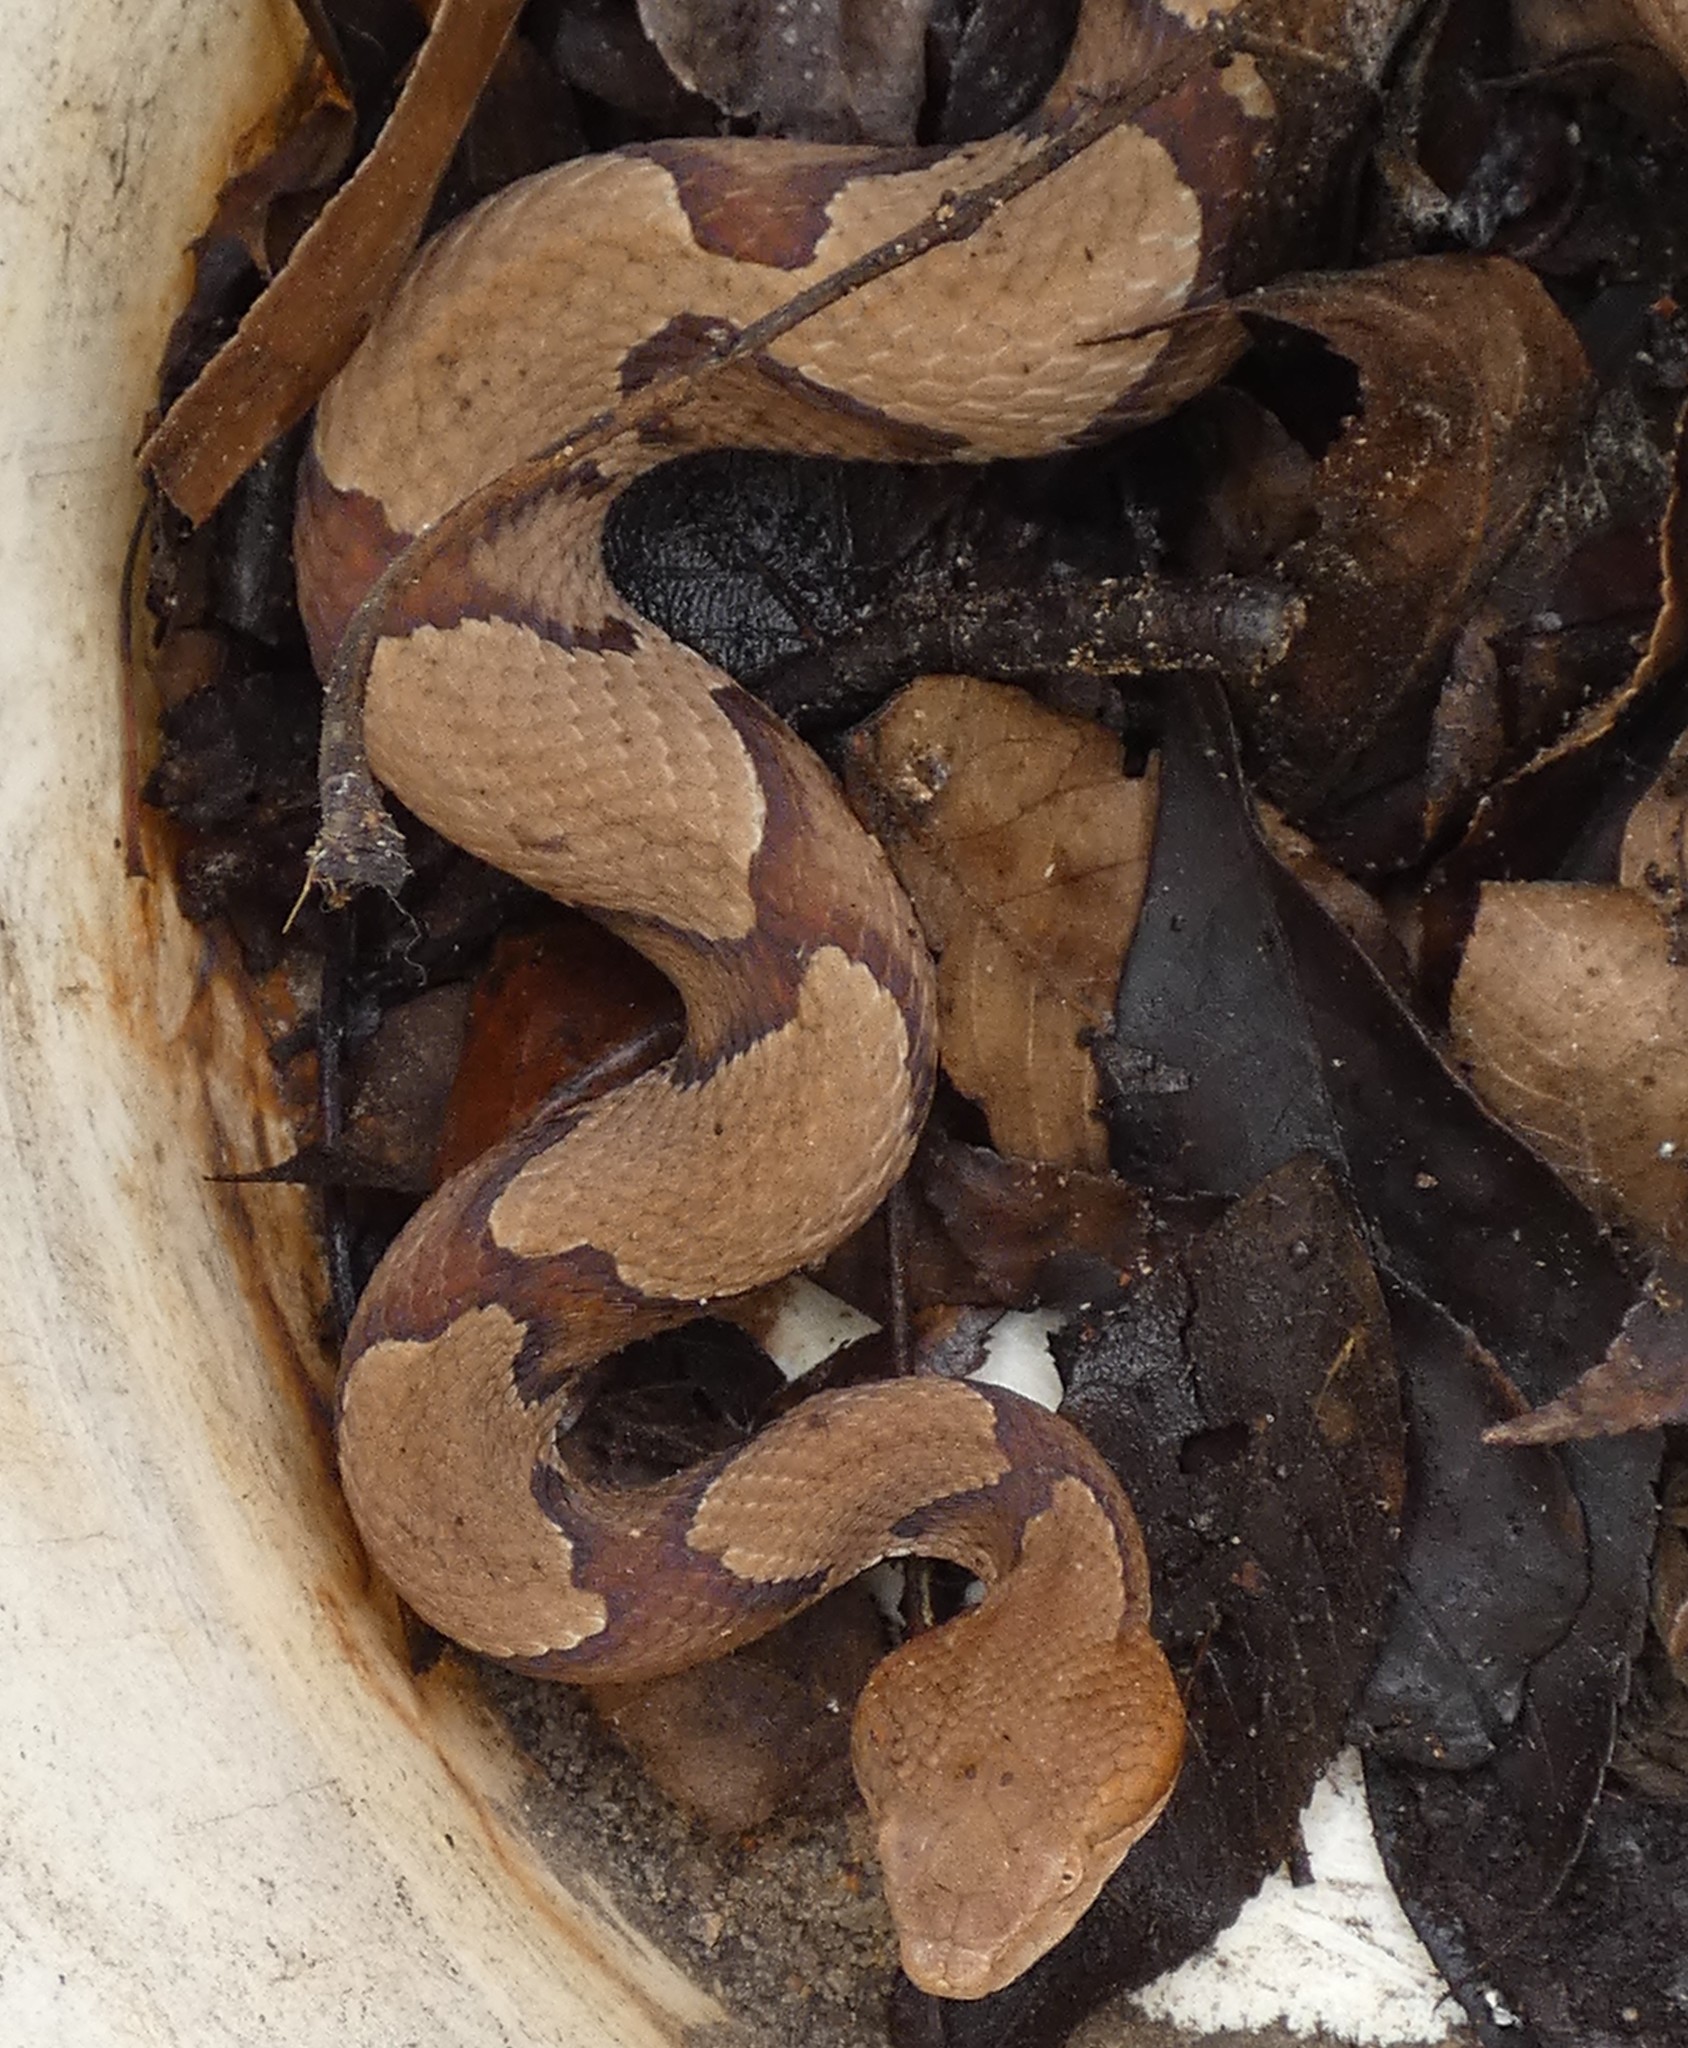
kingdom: Animalia
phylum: Chordata
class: Squamata
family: Viperidae
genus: Agkistrodon
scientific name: Agkistrodon contortrix
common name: Northern copperhead
